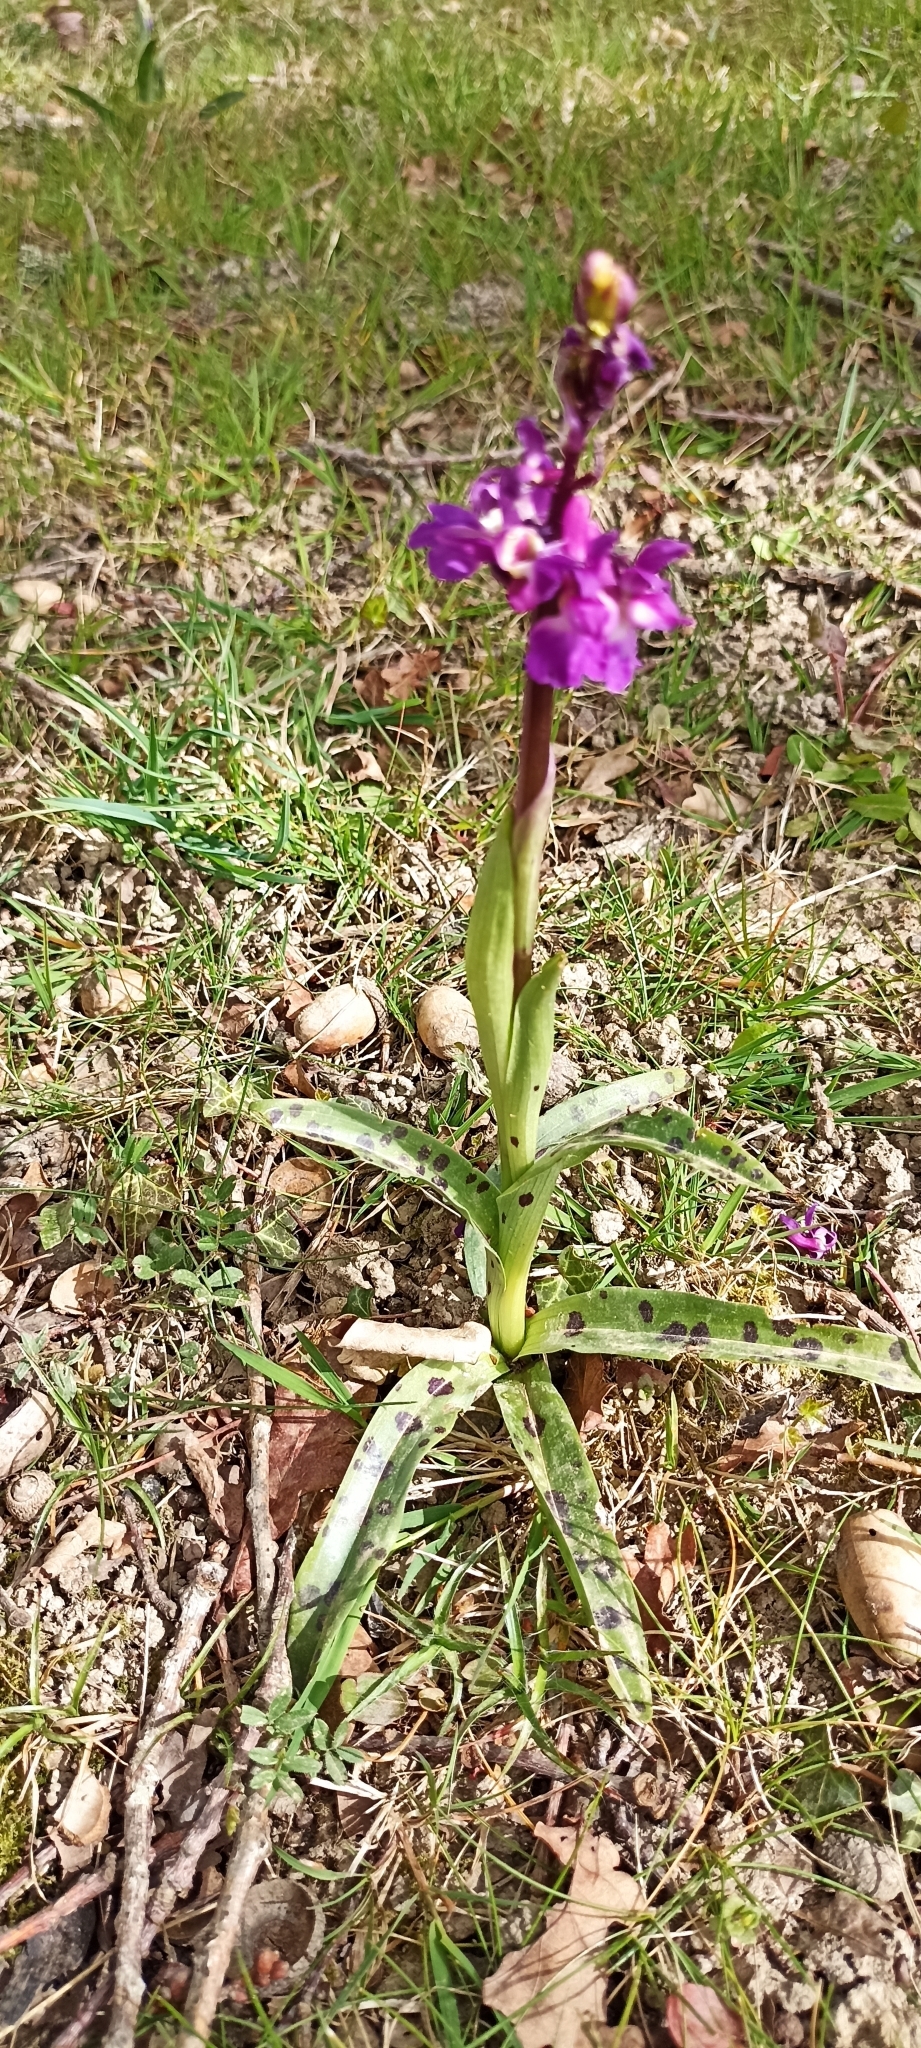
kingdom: Plantae
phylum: Tracheophyta
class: Liliopsida
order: Asparagales
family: Orchidaceae
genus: Orchis
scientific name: Orchis mascula
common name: Early-purple orchid
